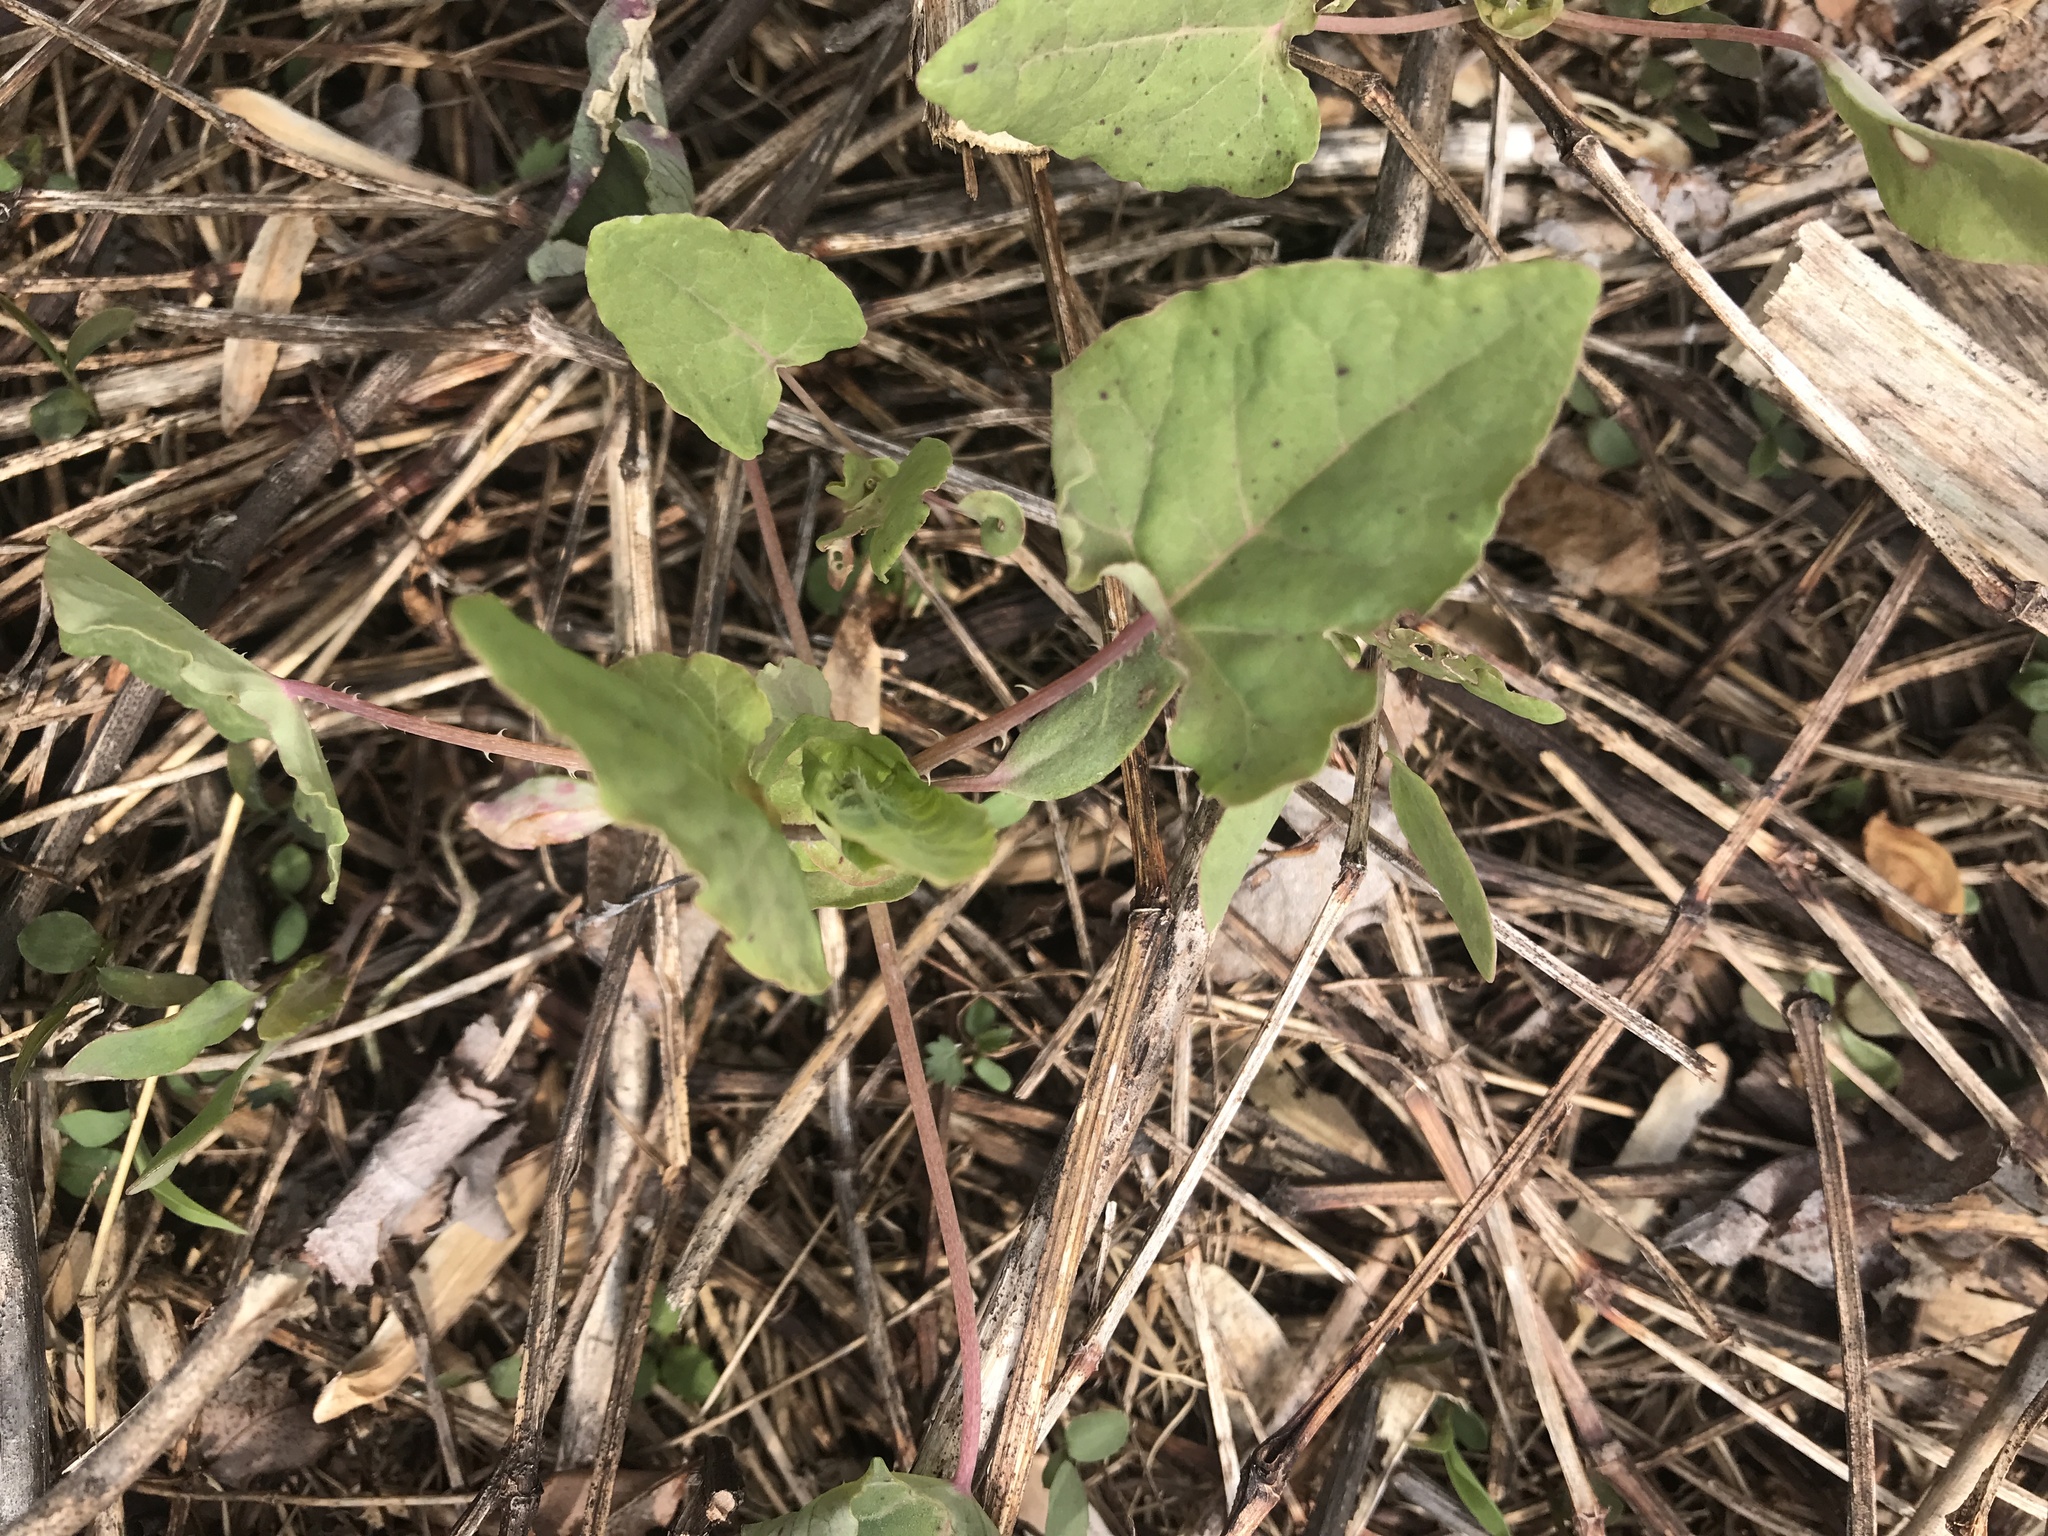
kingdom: Plantae
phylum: Tracheophyta
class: Magnoliopsida
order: Caryophyllales
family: Polygonaceae
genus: Persicaria
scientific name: Persicaria perfoliata
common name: Asiatic tearthumb
